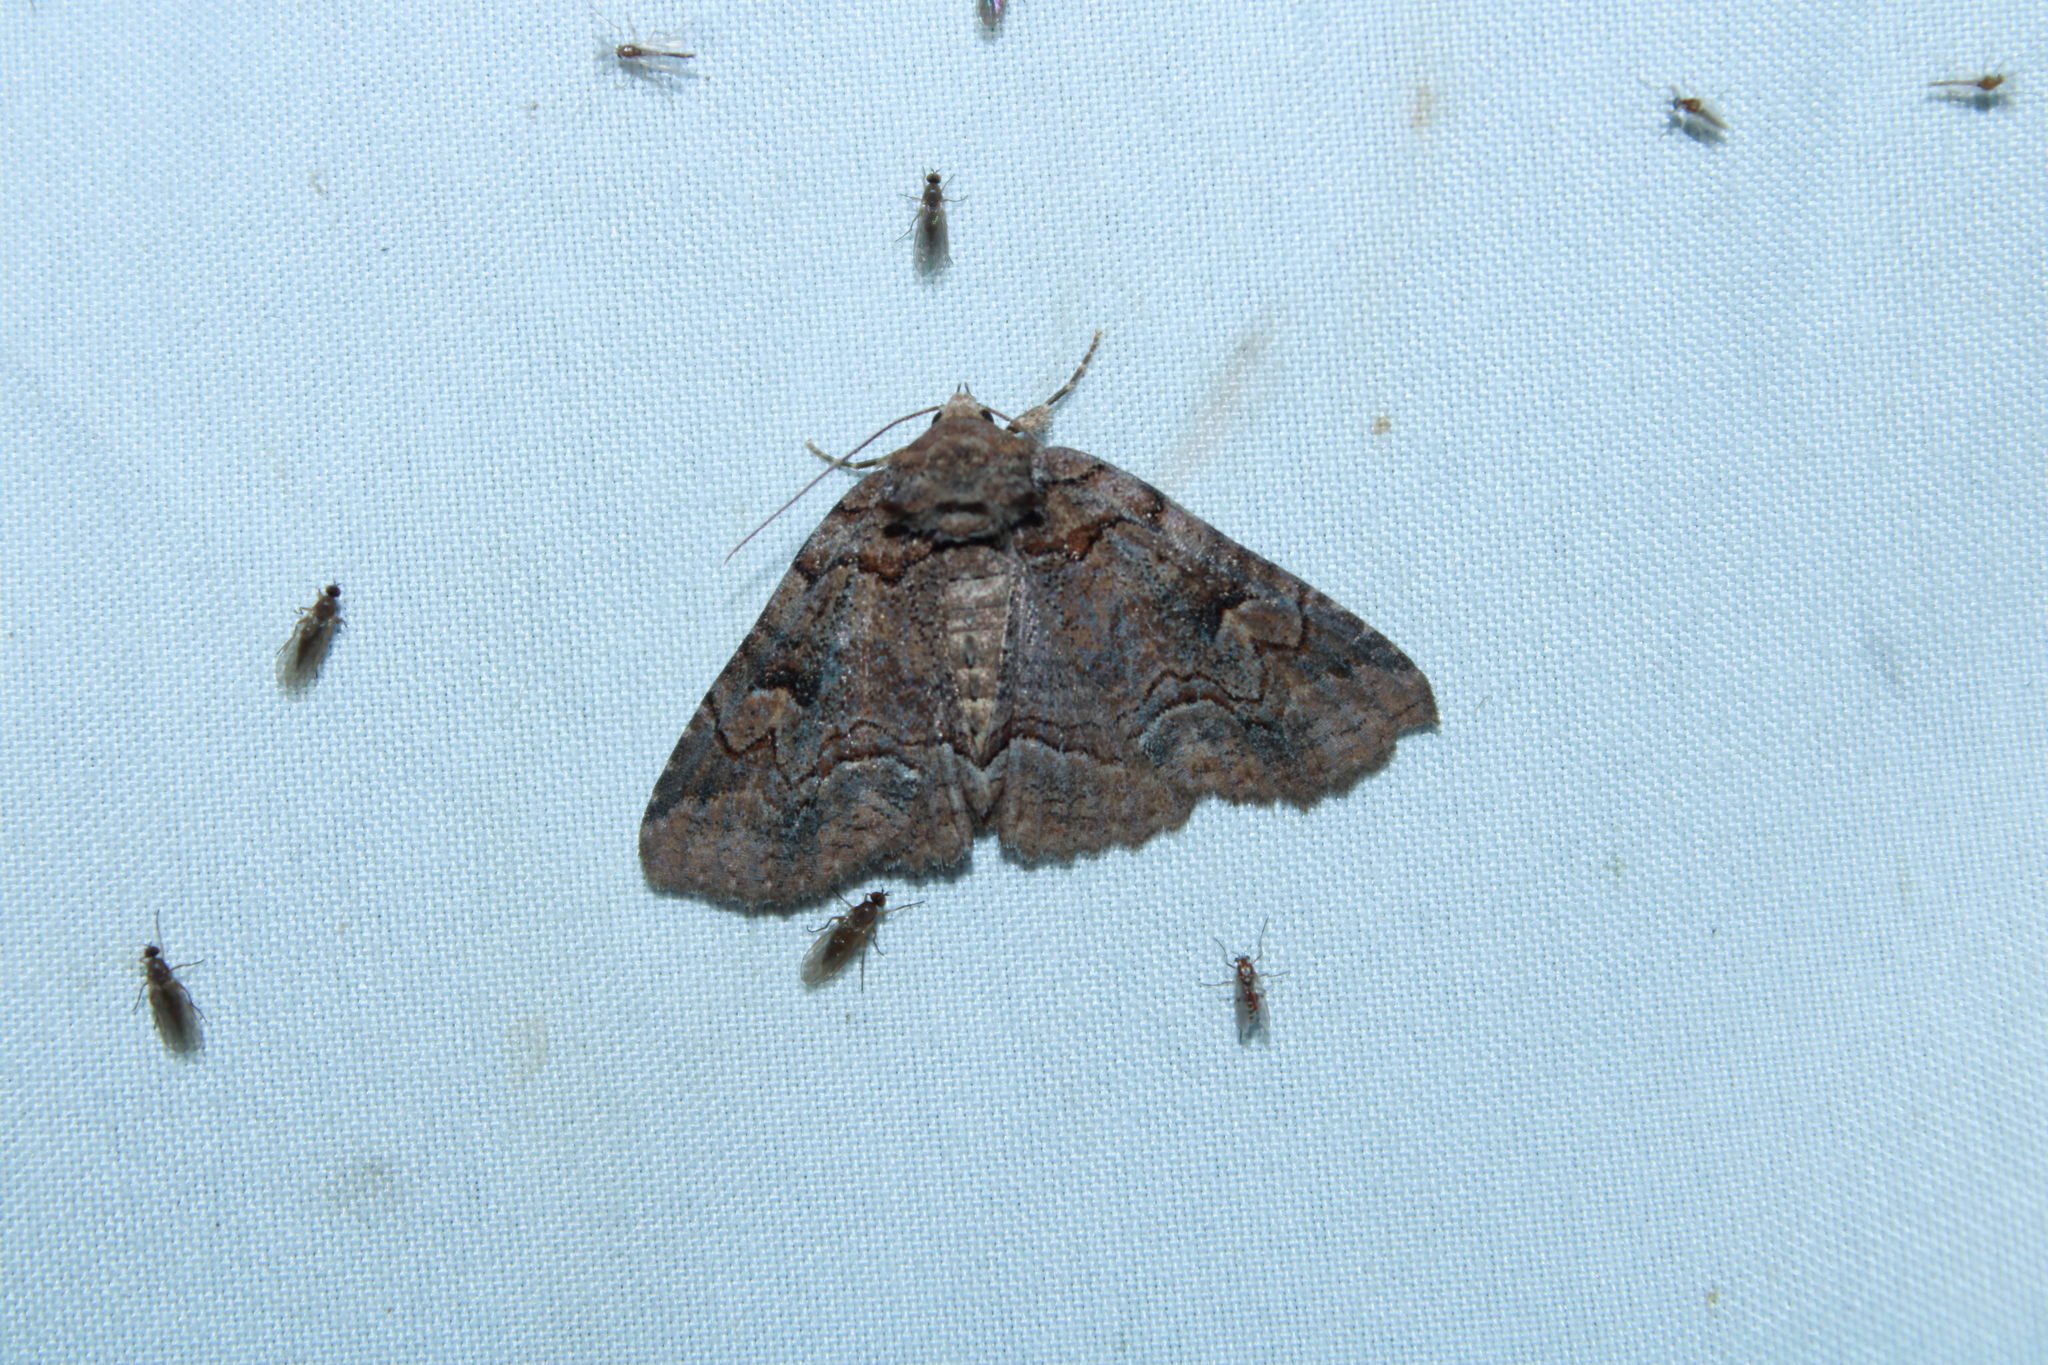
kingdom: Animalia
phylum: Arthropoda
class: Insecta
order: Lepidoptera
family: Erebidae
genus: Zale
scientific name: Zale helata
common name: Brown-spotted zale moth
